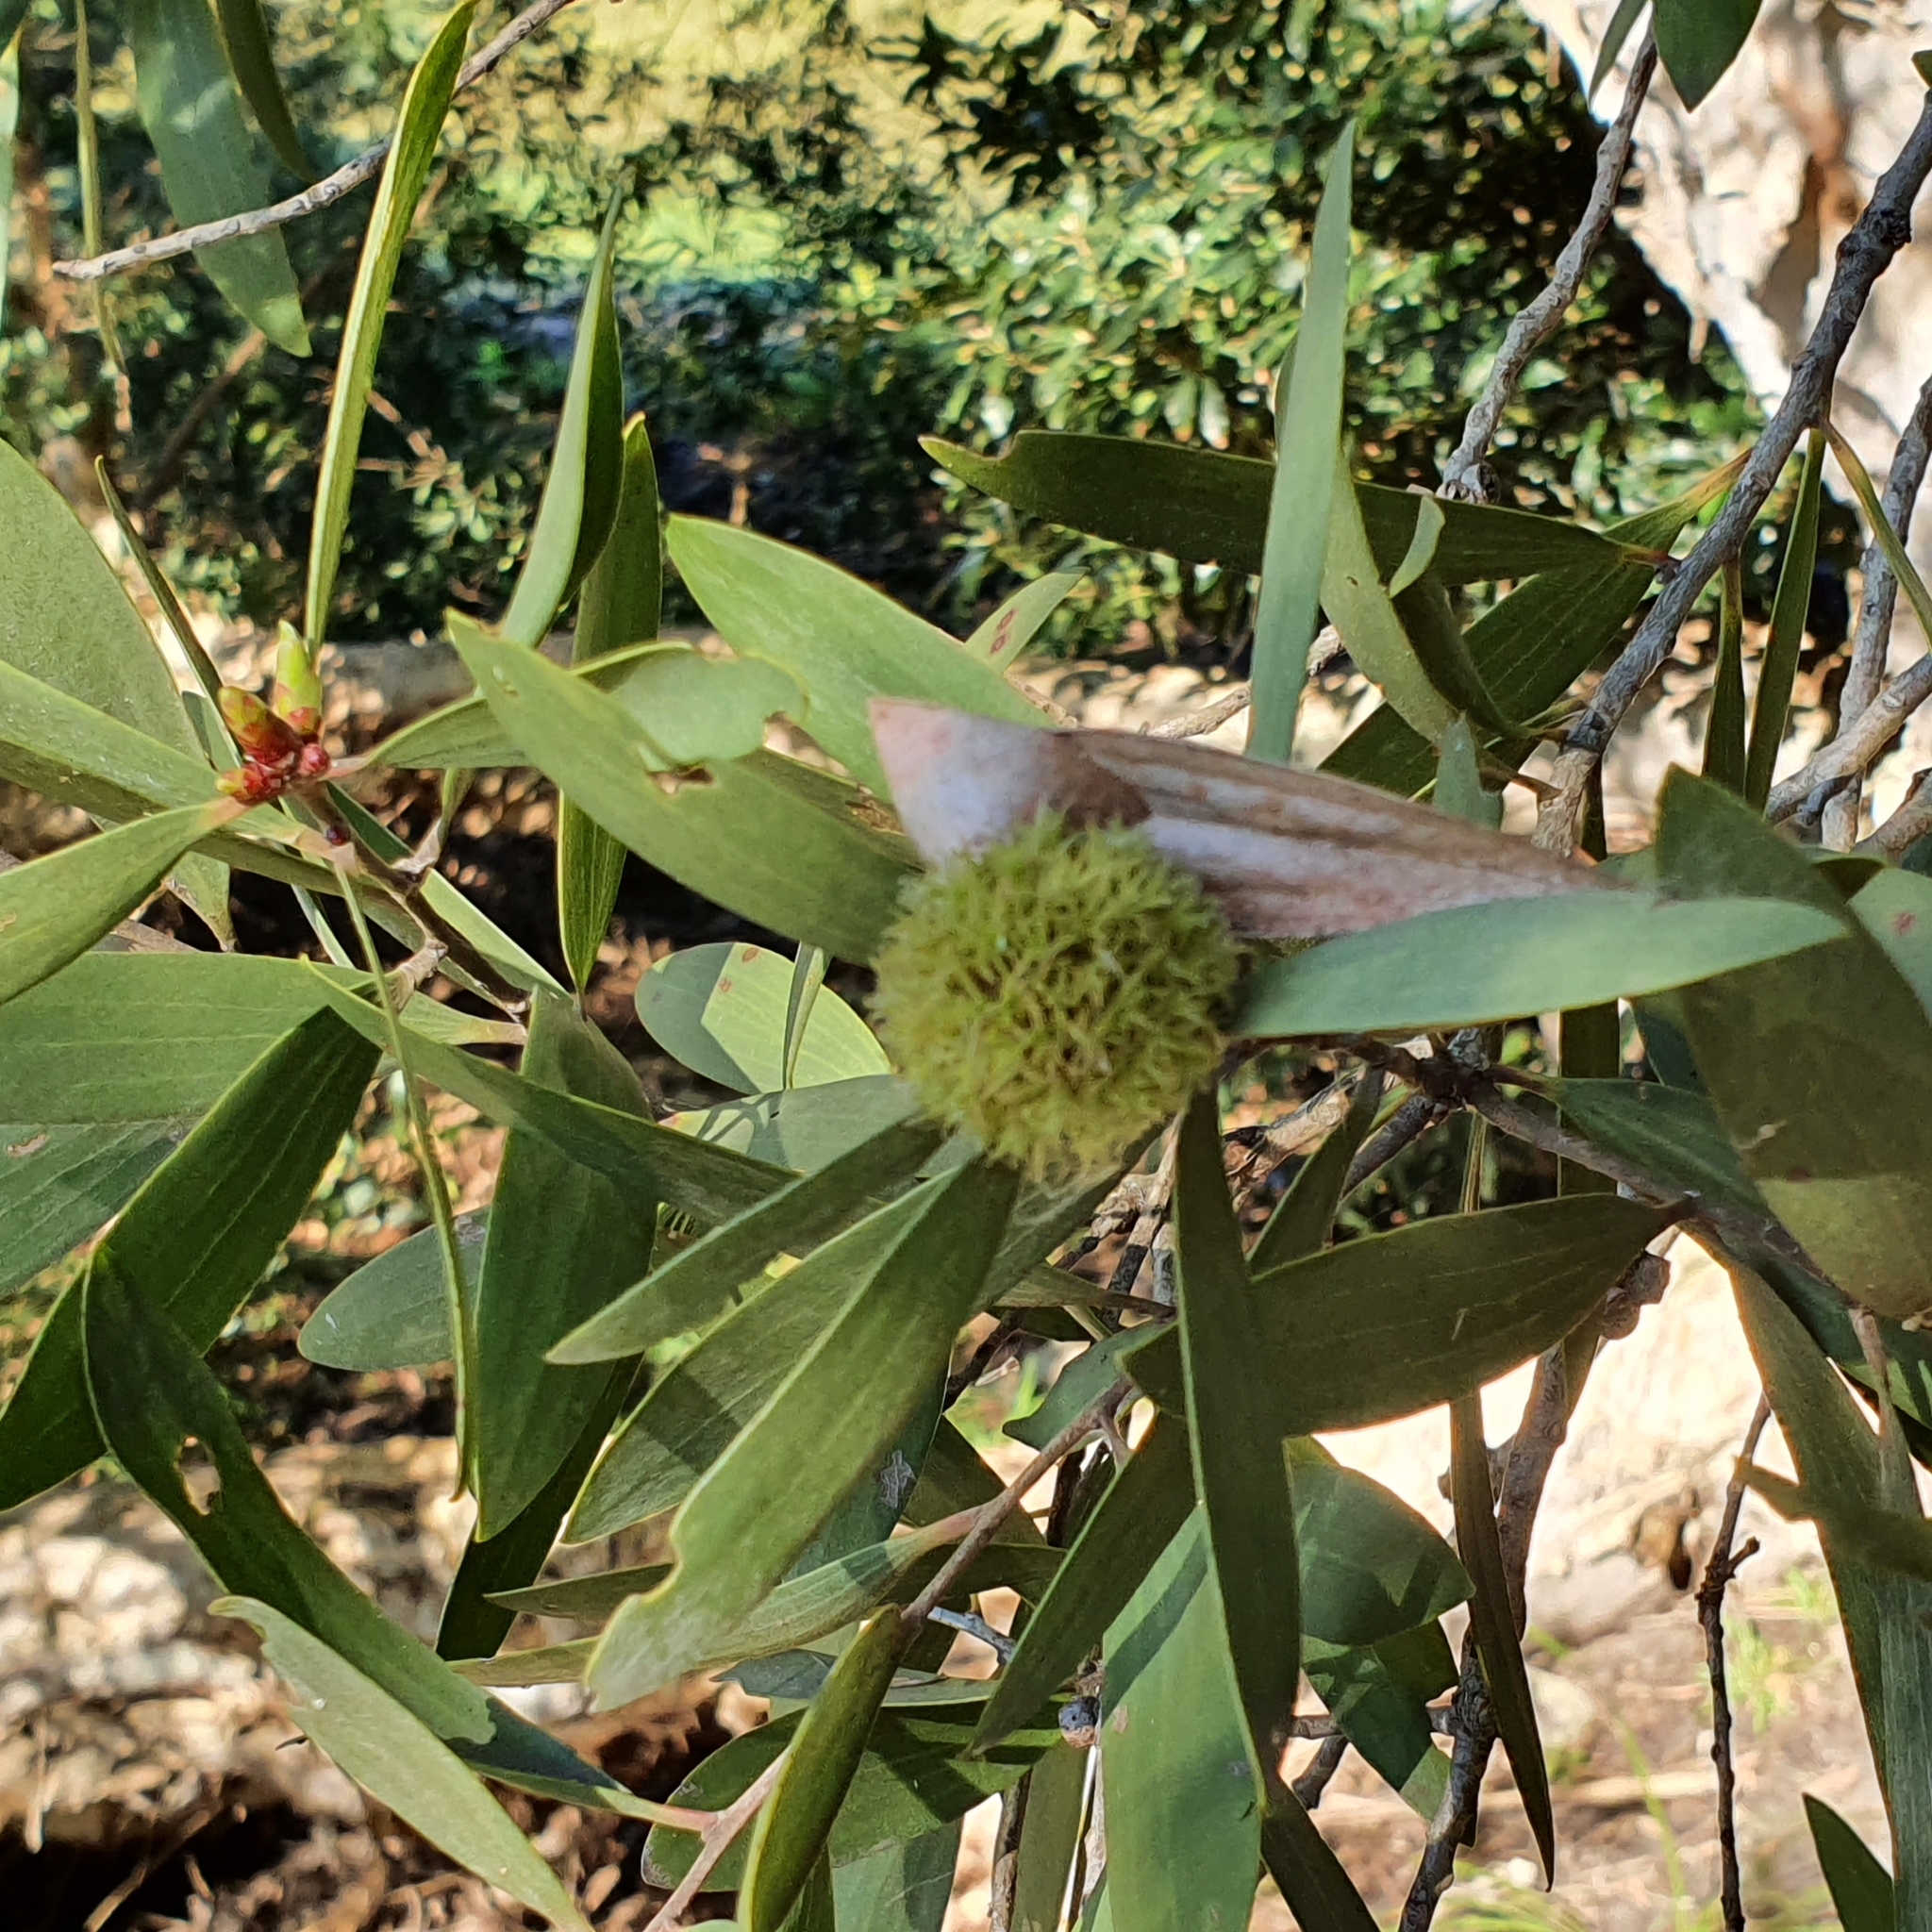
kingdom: Plantae
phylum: Tracheophyta
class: Magnoliopsida
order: Myrtales
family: Myrtaceae
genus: Melaleuca
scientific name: Melaleuca quinquenervia
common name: Punktree
